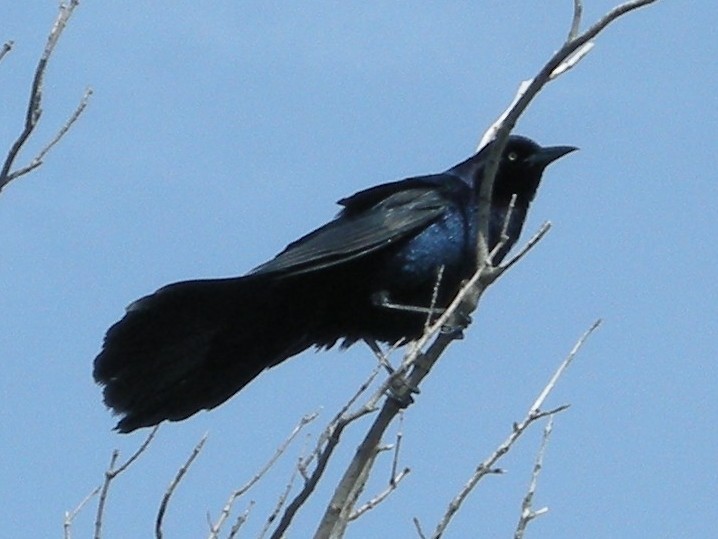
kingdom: Animalia
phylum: Chordata
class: Aves
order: Passeriformes
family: Icteridae
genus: Quiscalus
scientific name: Quiscalus major
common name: Boat-tailed grackle
